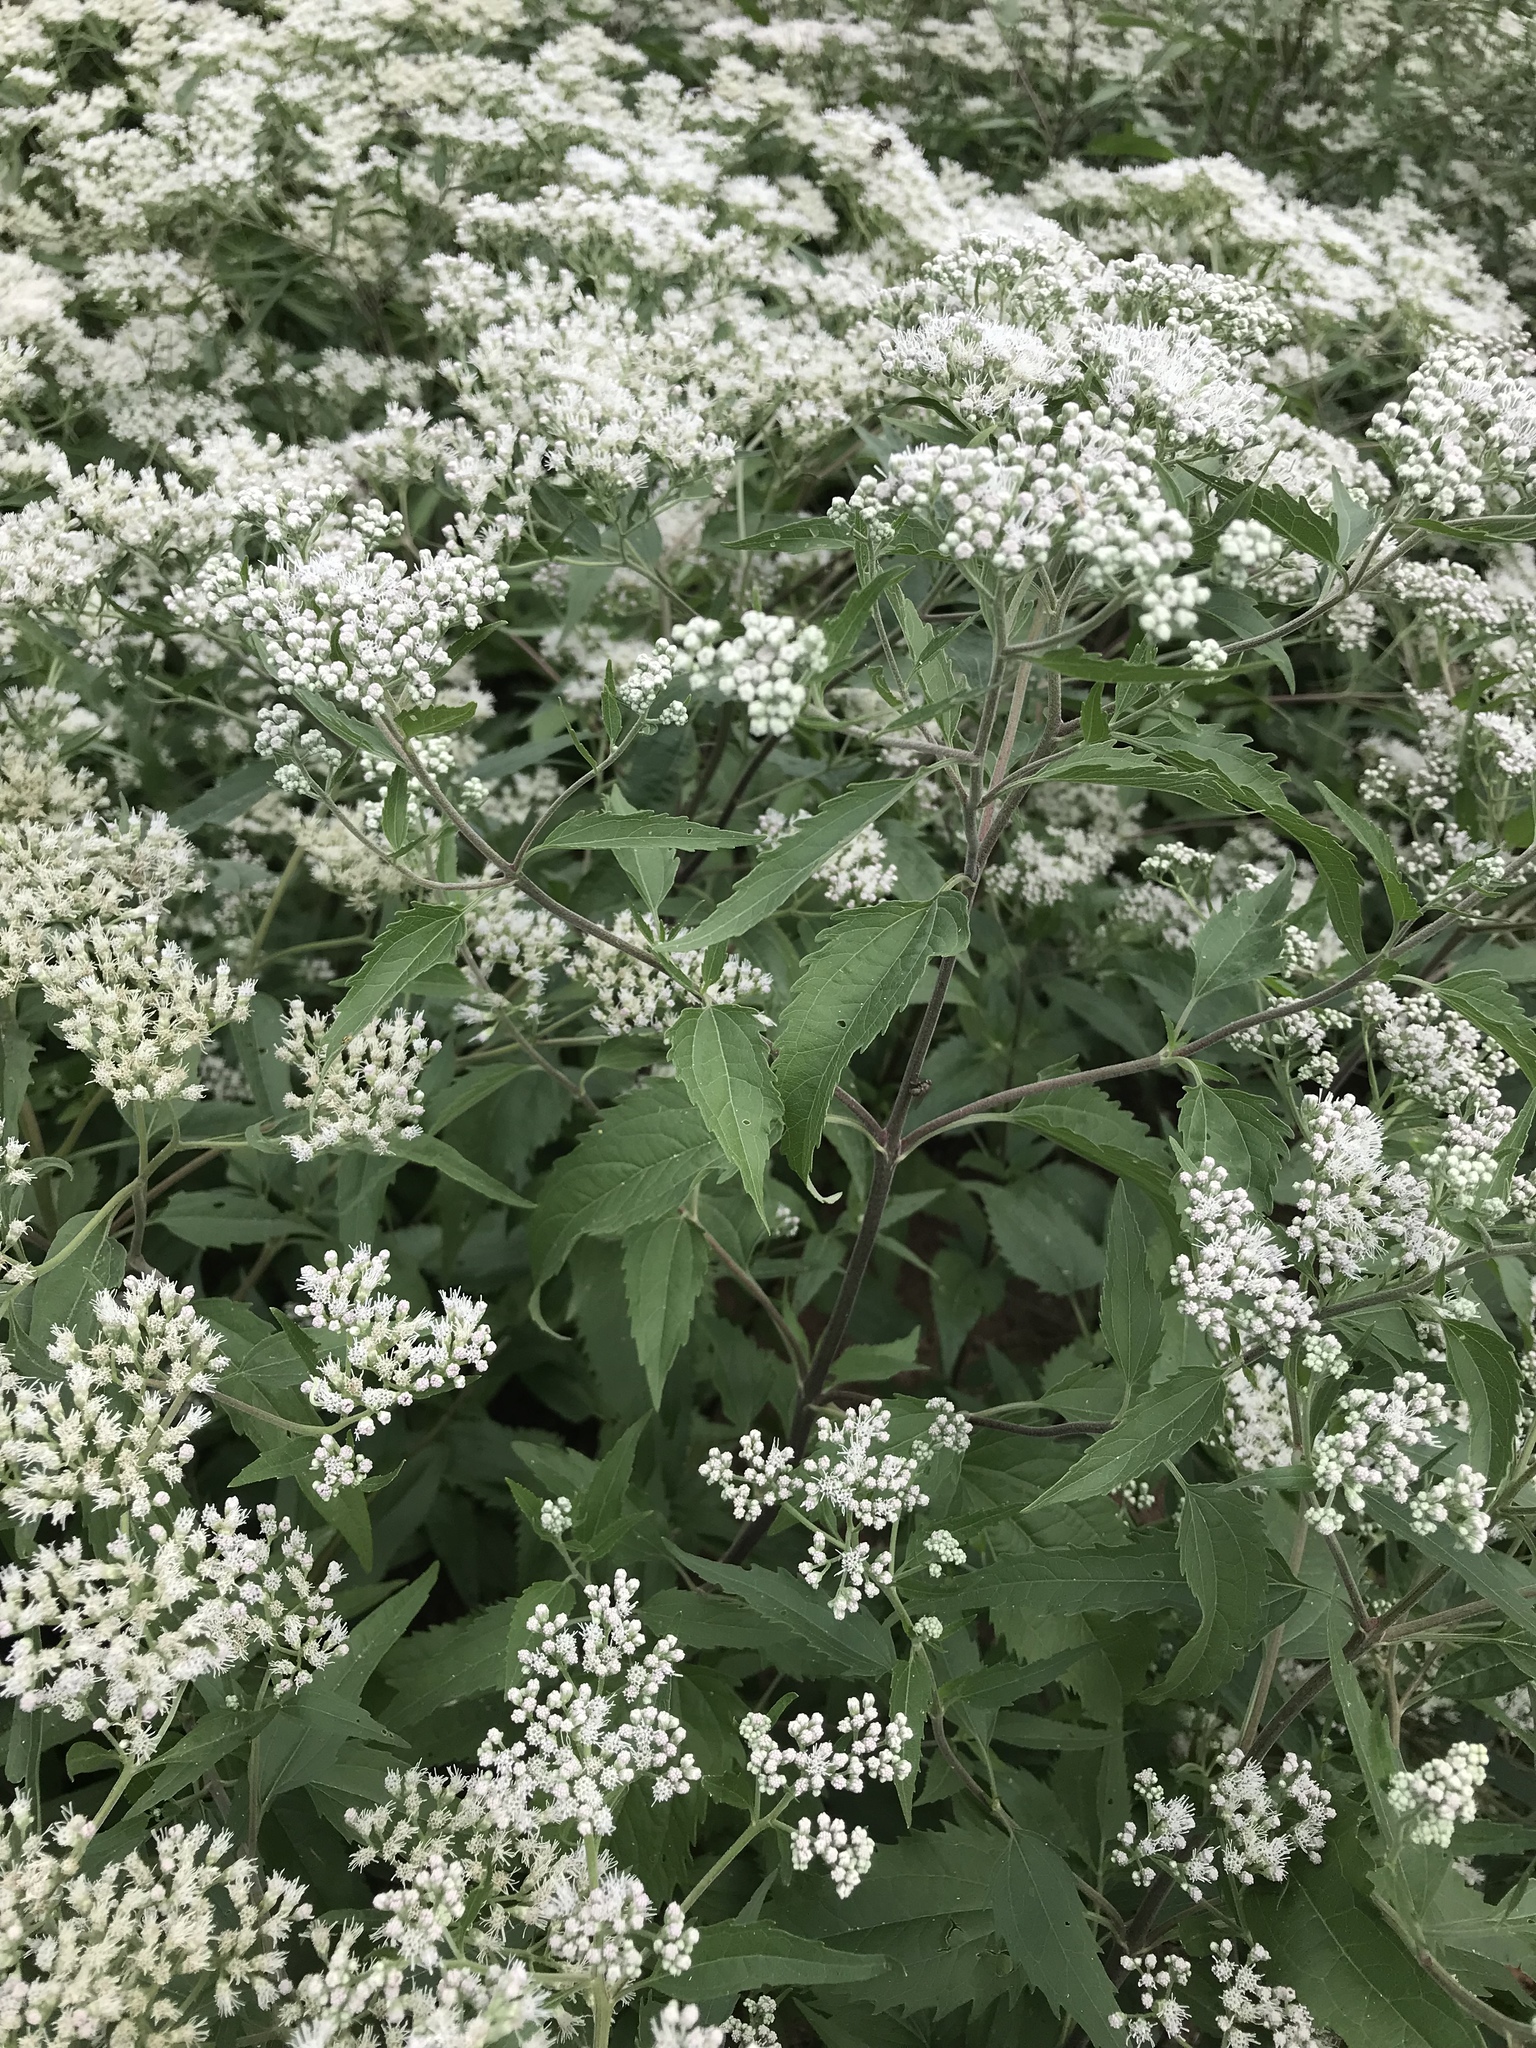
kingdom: Plantae
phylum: Tracheophyta
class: Magnoliopsida
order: Asterales
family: Asteraceae
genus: Eupatorium
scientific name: Eupatorium serotinum
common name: Late boneset
